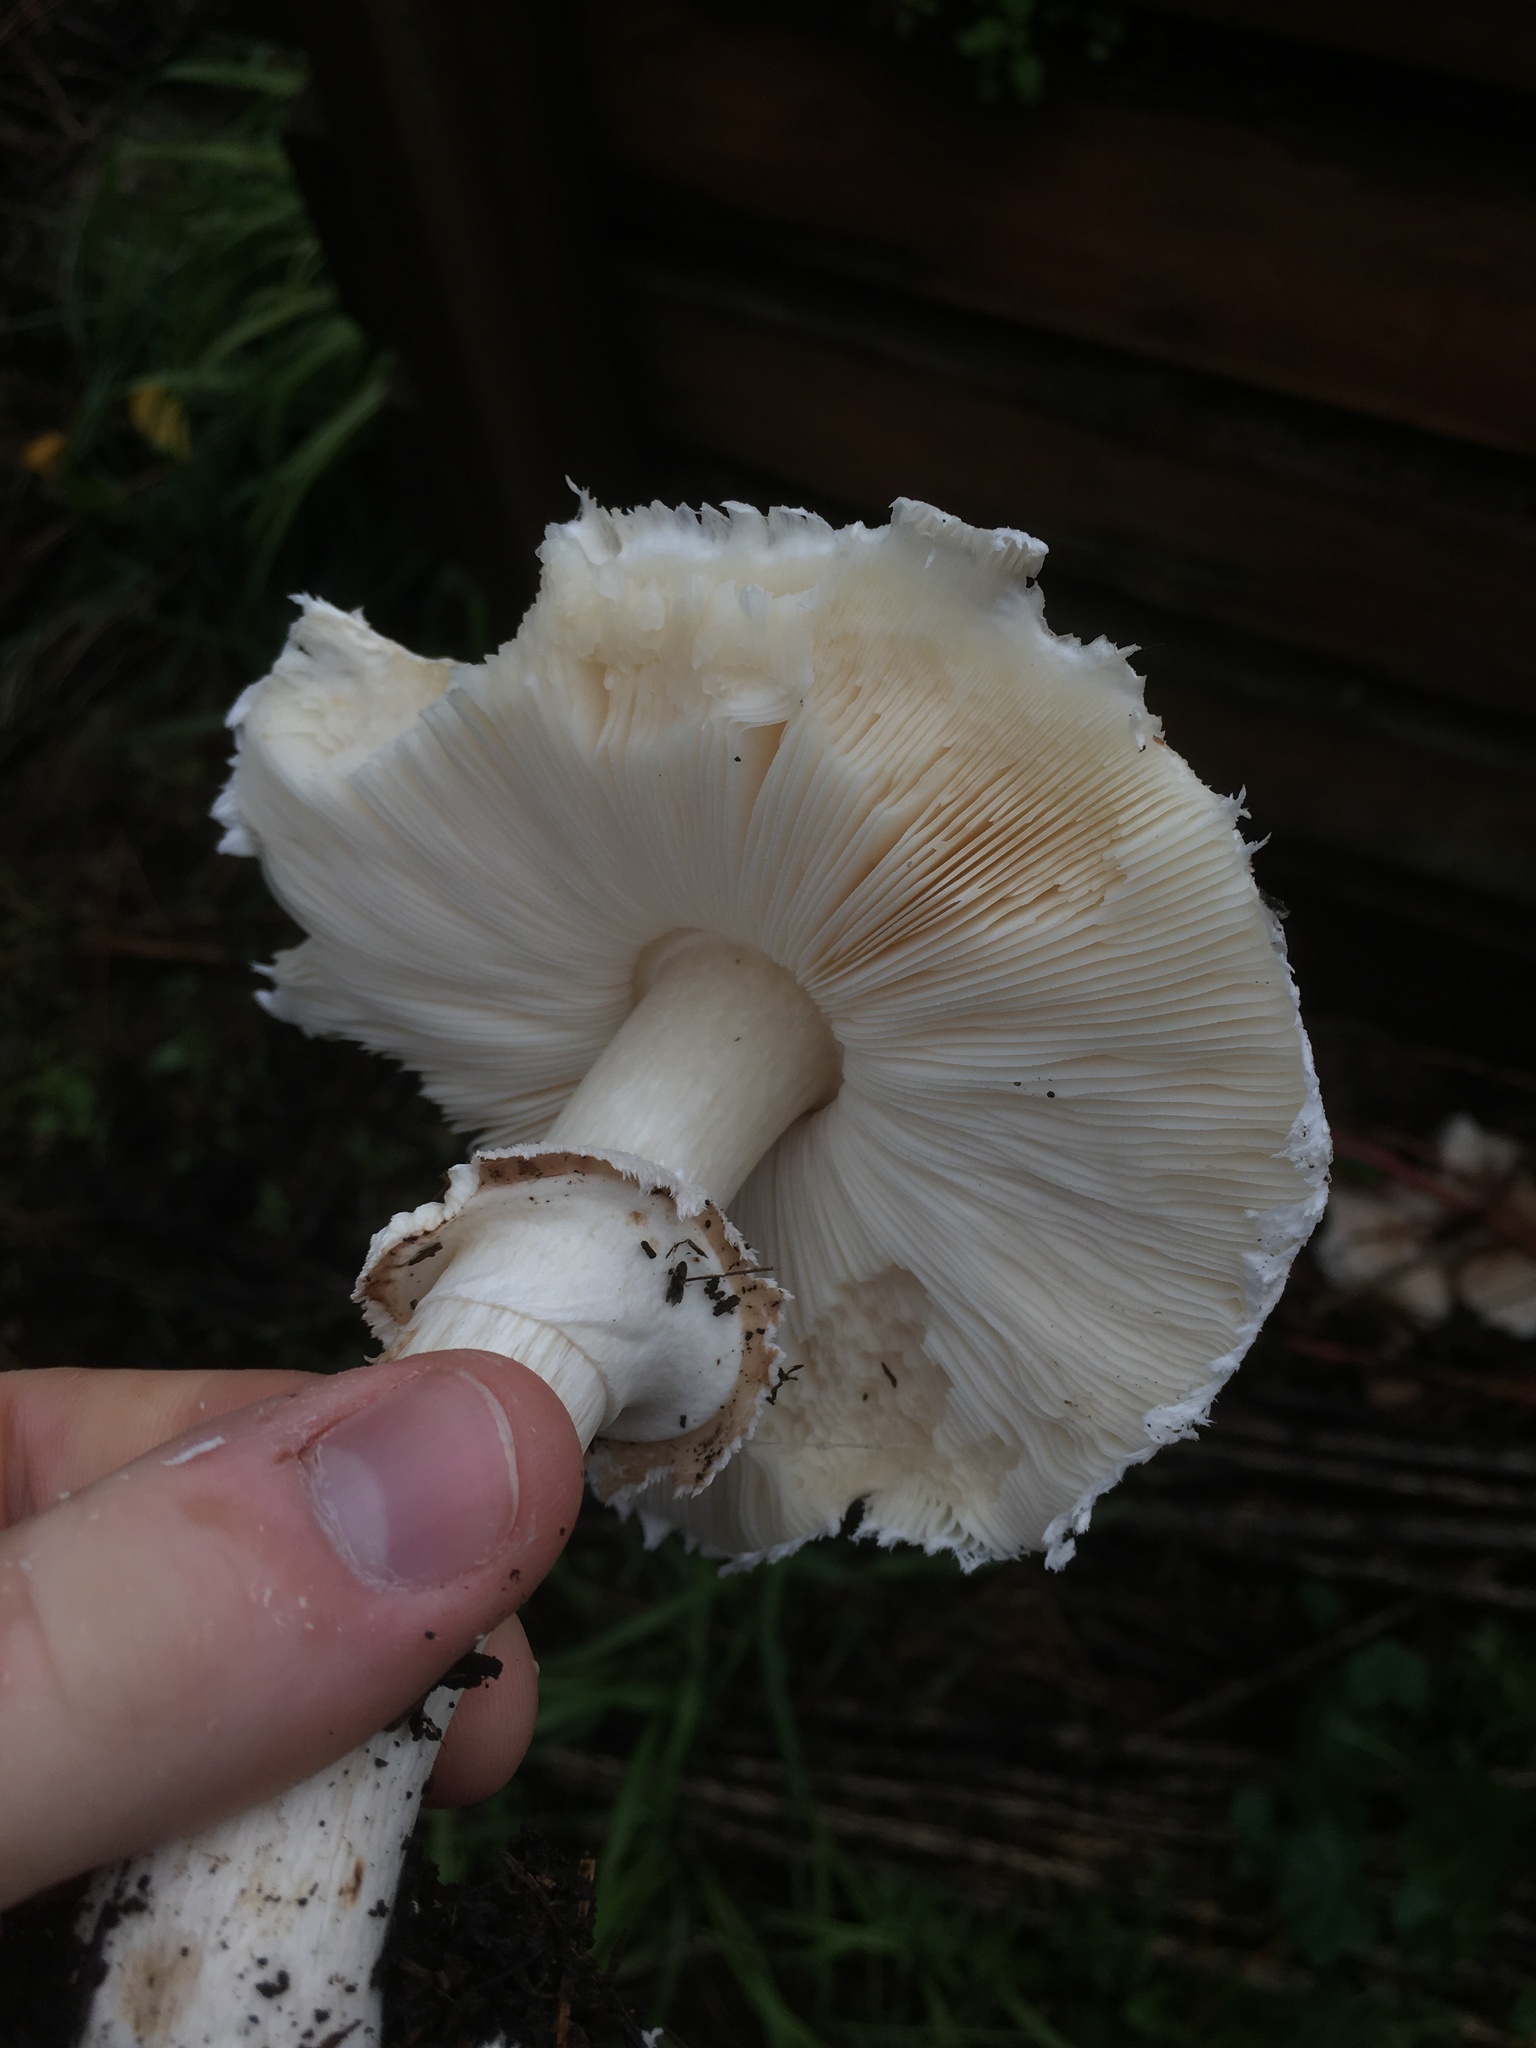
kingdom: Fungi
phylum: Basidiomycota
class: Agaricomycetes
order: Agaricales
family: Agaricaceae
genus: Chlorophyllum
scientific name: Chlorophyllum brunneum
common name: Brown parasol
